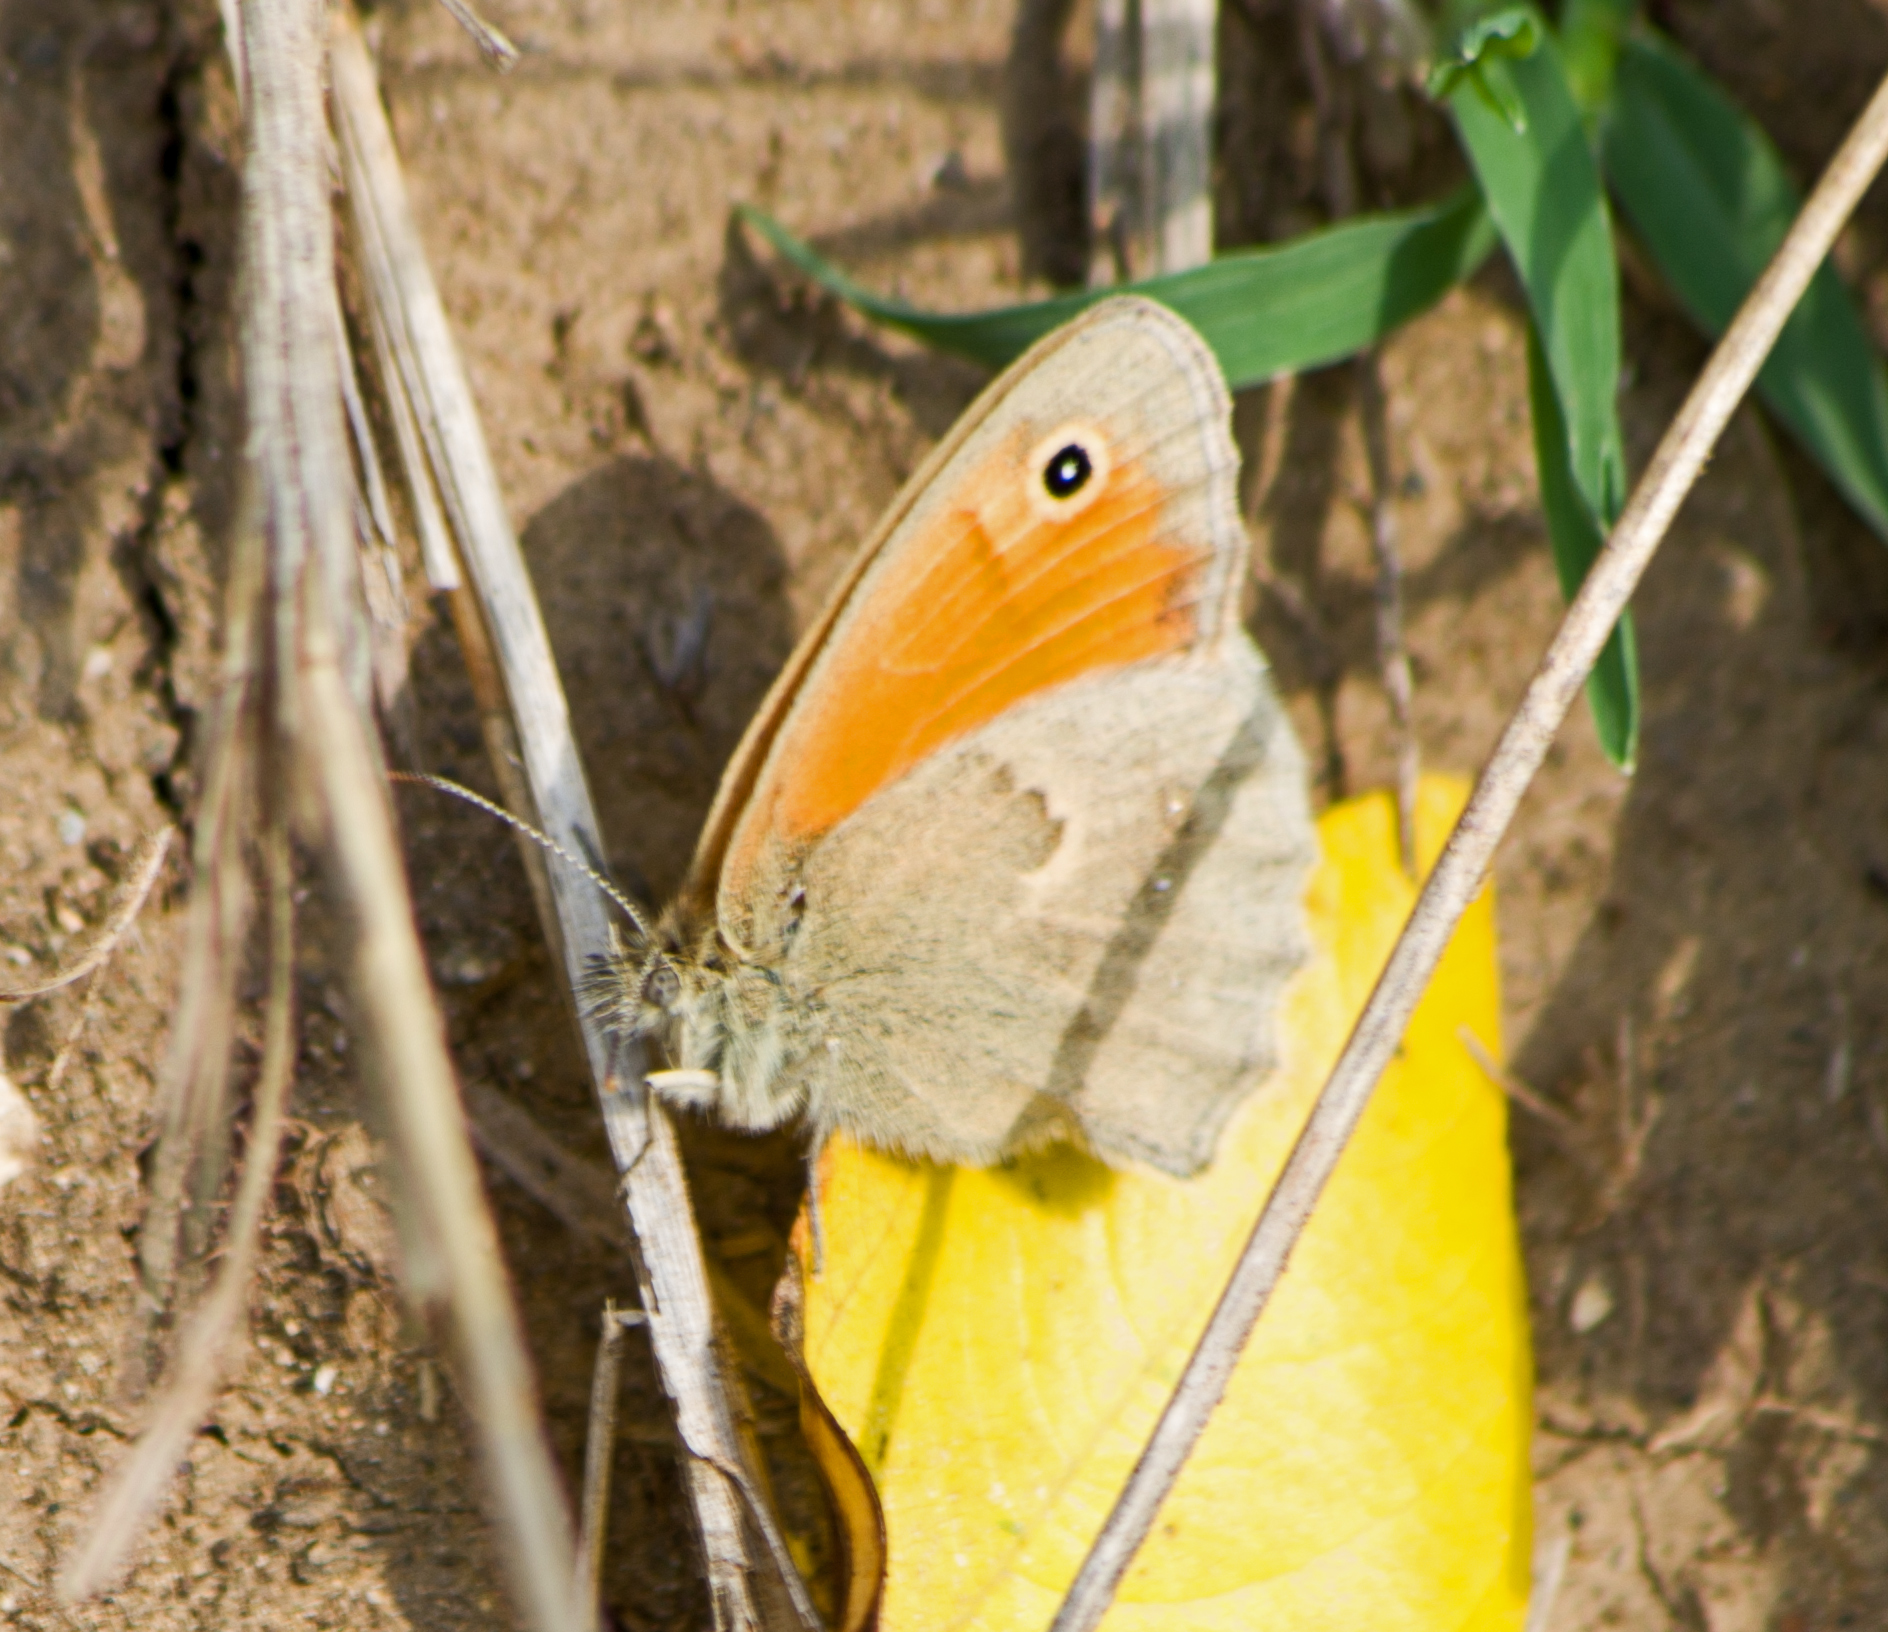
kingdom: Animalia
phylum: Arthropoda
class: Insecta
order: Lepidoptera
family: Nymphalidae
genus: Coenonympha
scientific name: Coenonympha pamphilus
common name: Small heath
